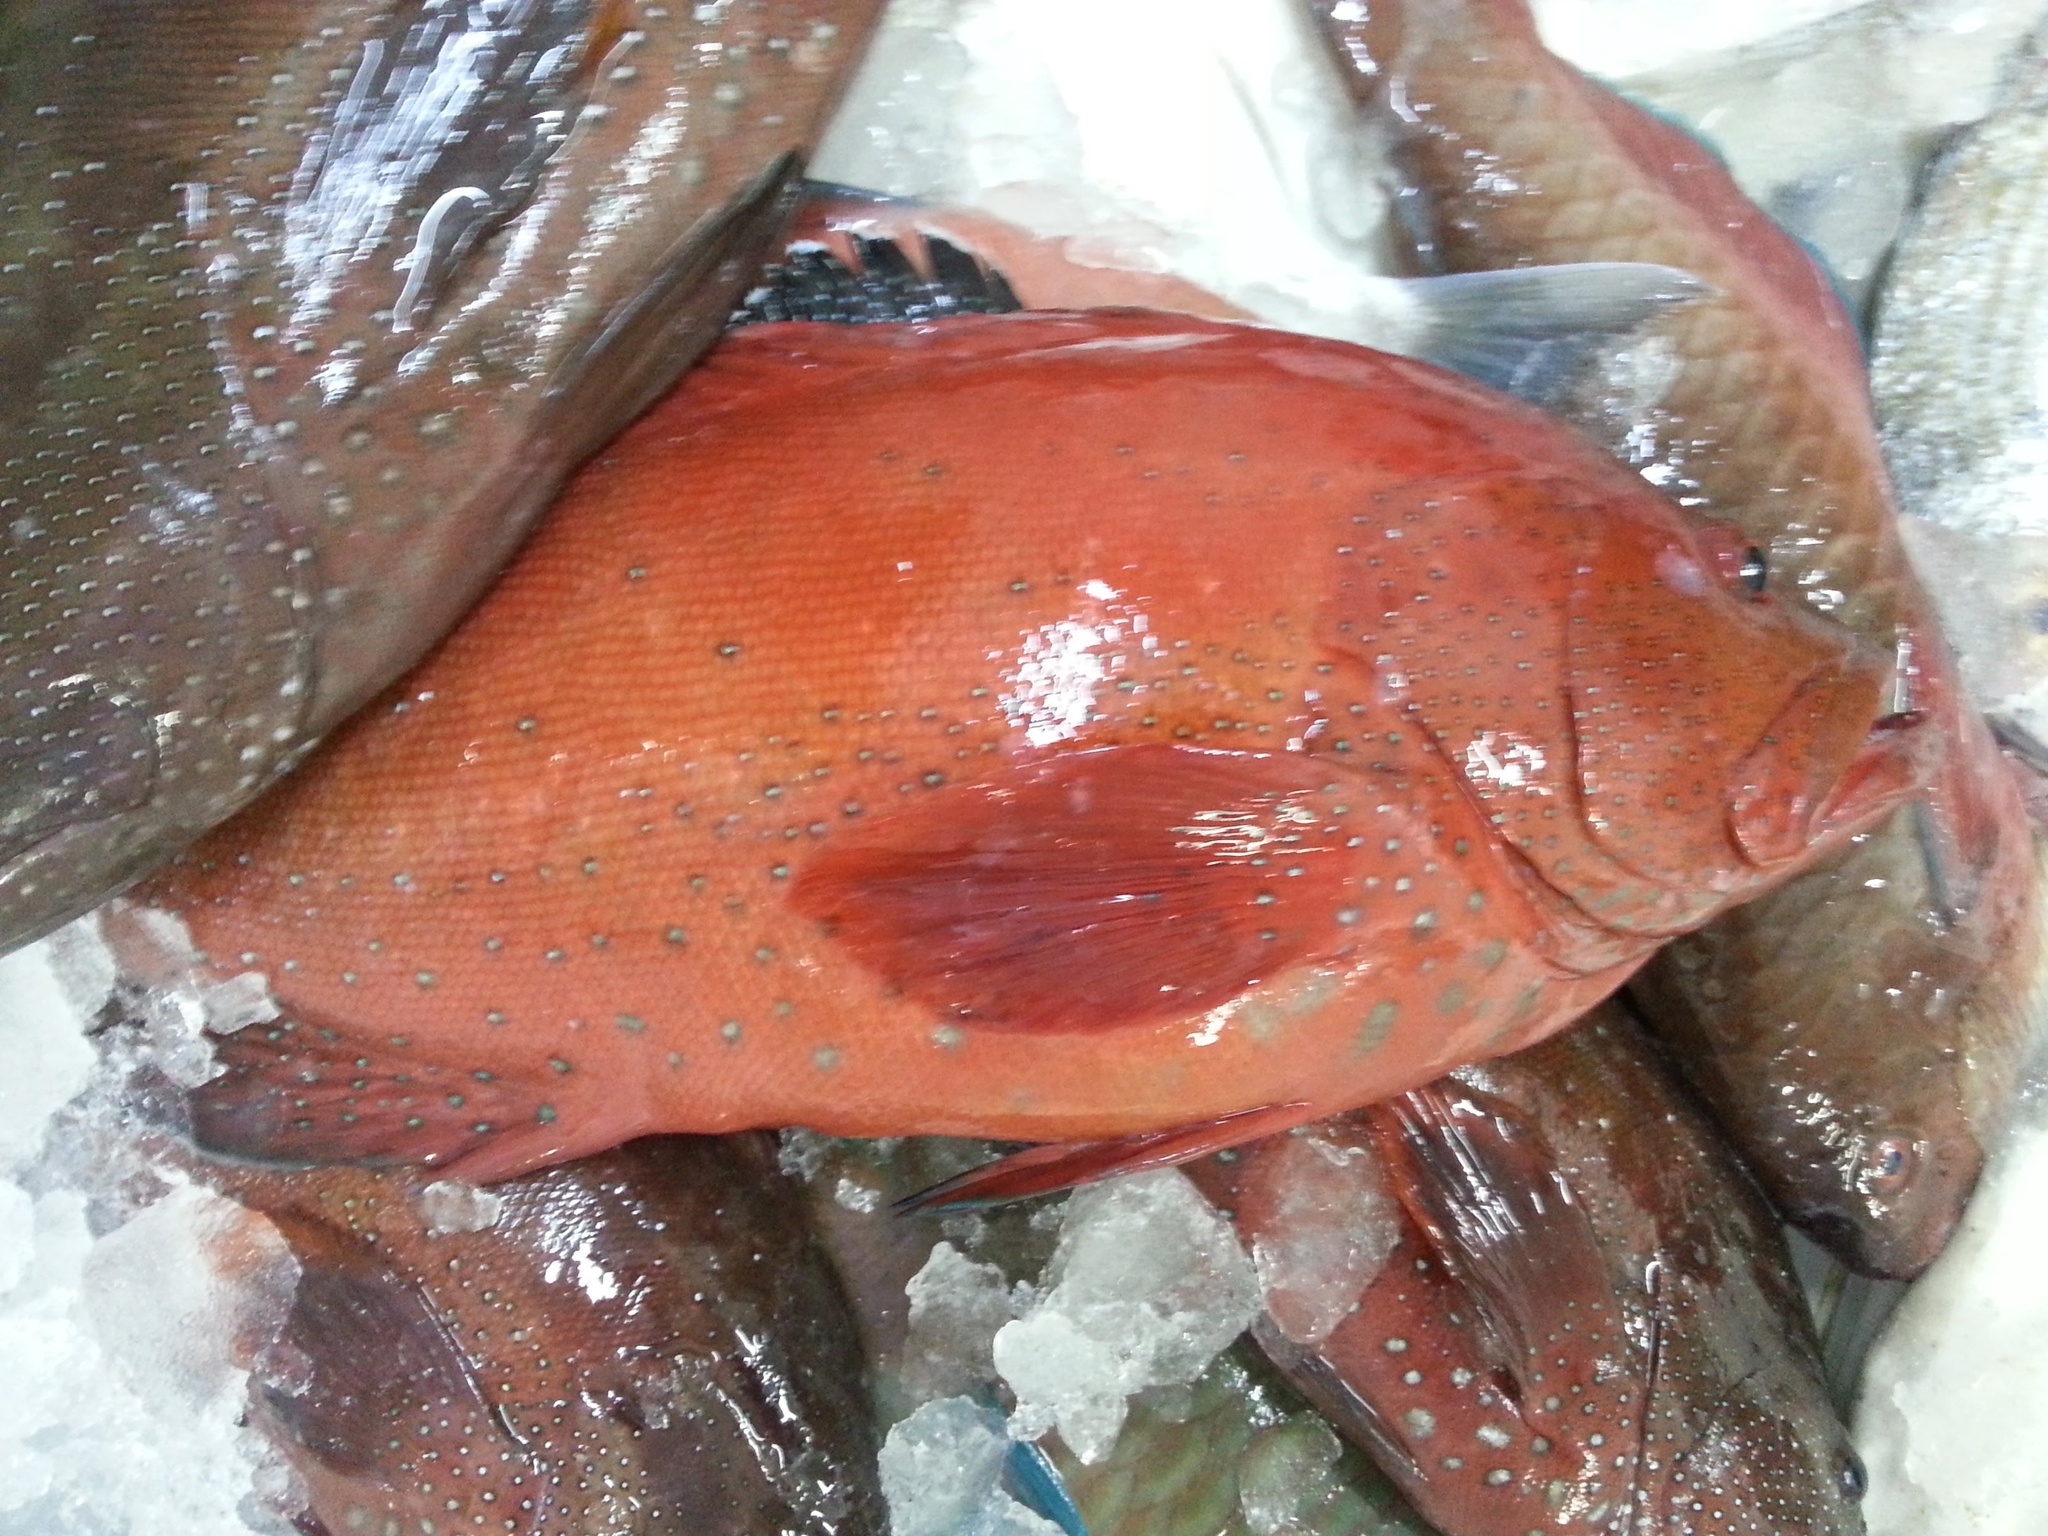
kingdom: Animalia
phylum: Chordata
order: Perciformes
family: Serranidae
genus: Cephalopholis
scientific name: Cephalopholis hemistiktos
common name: Halfspotted hind
